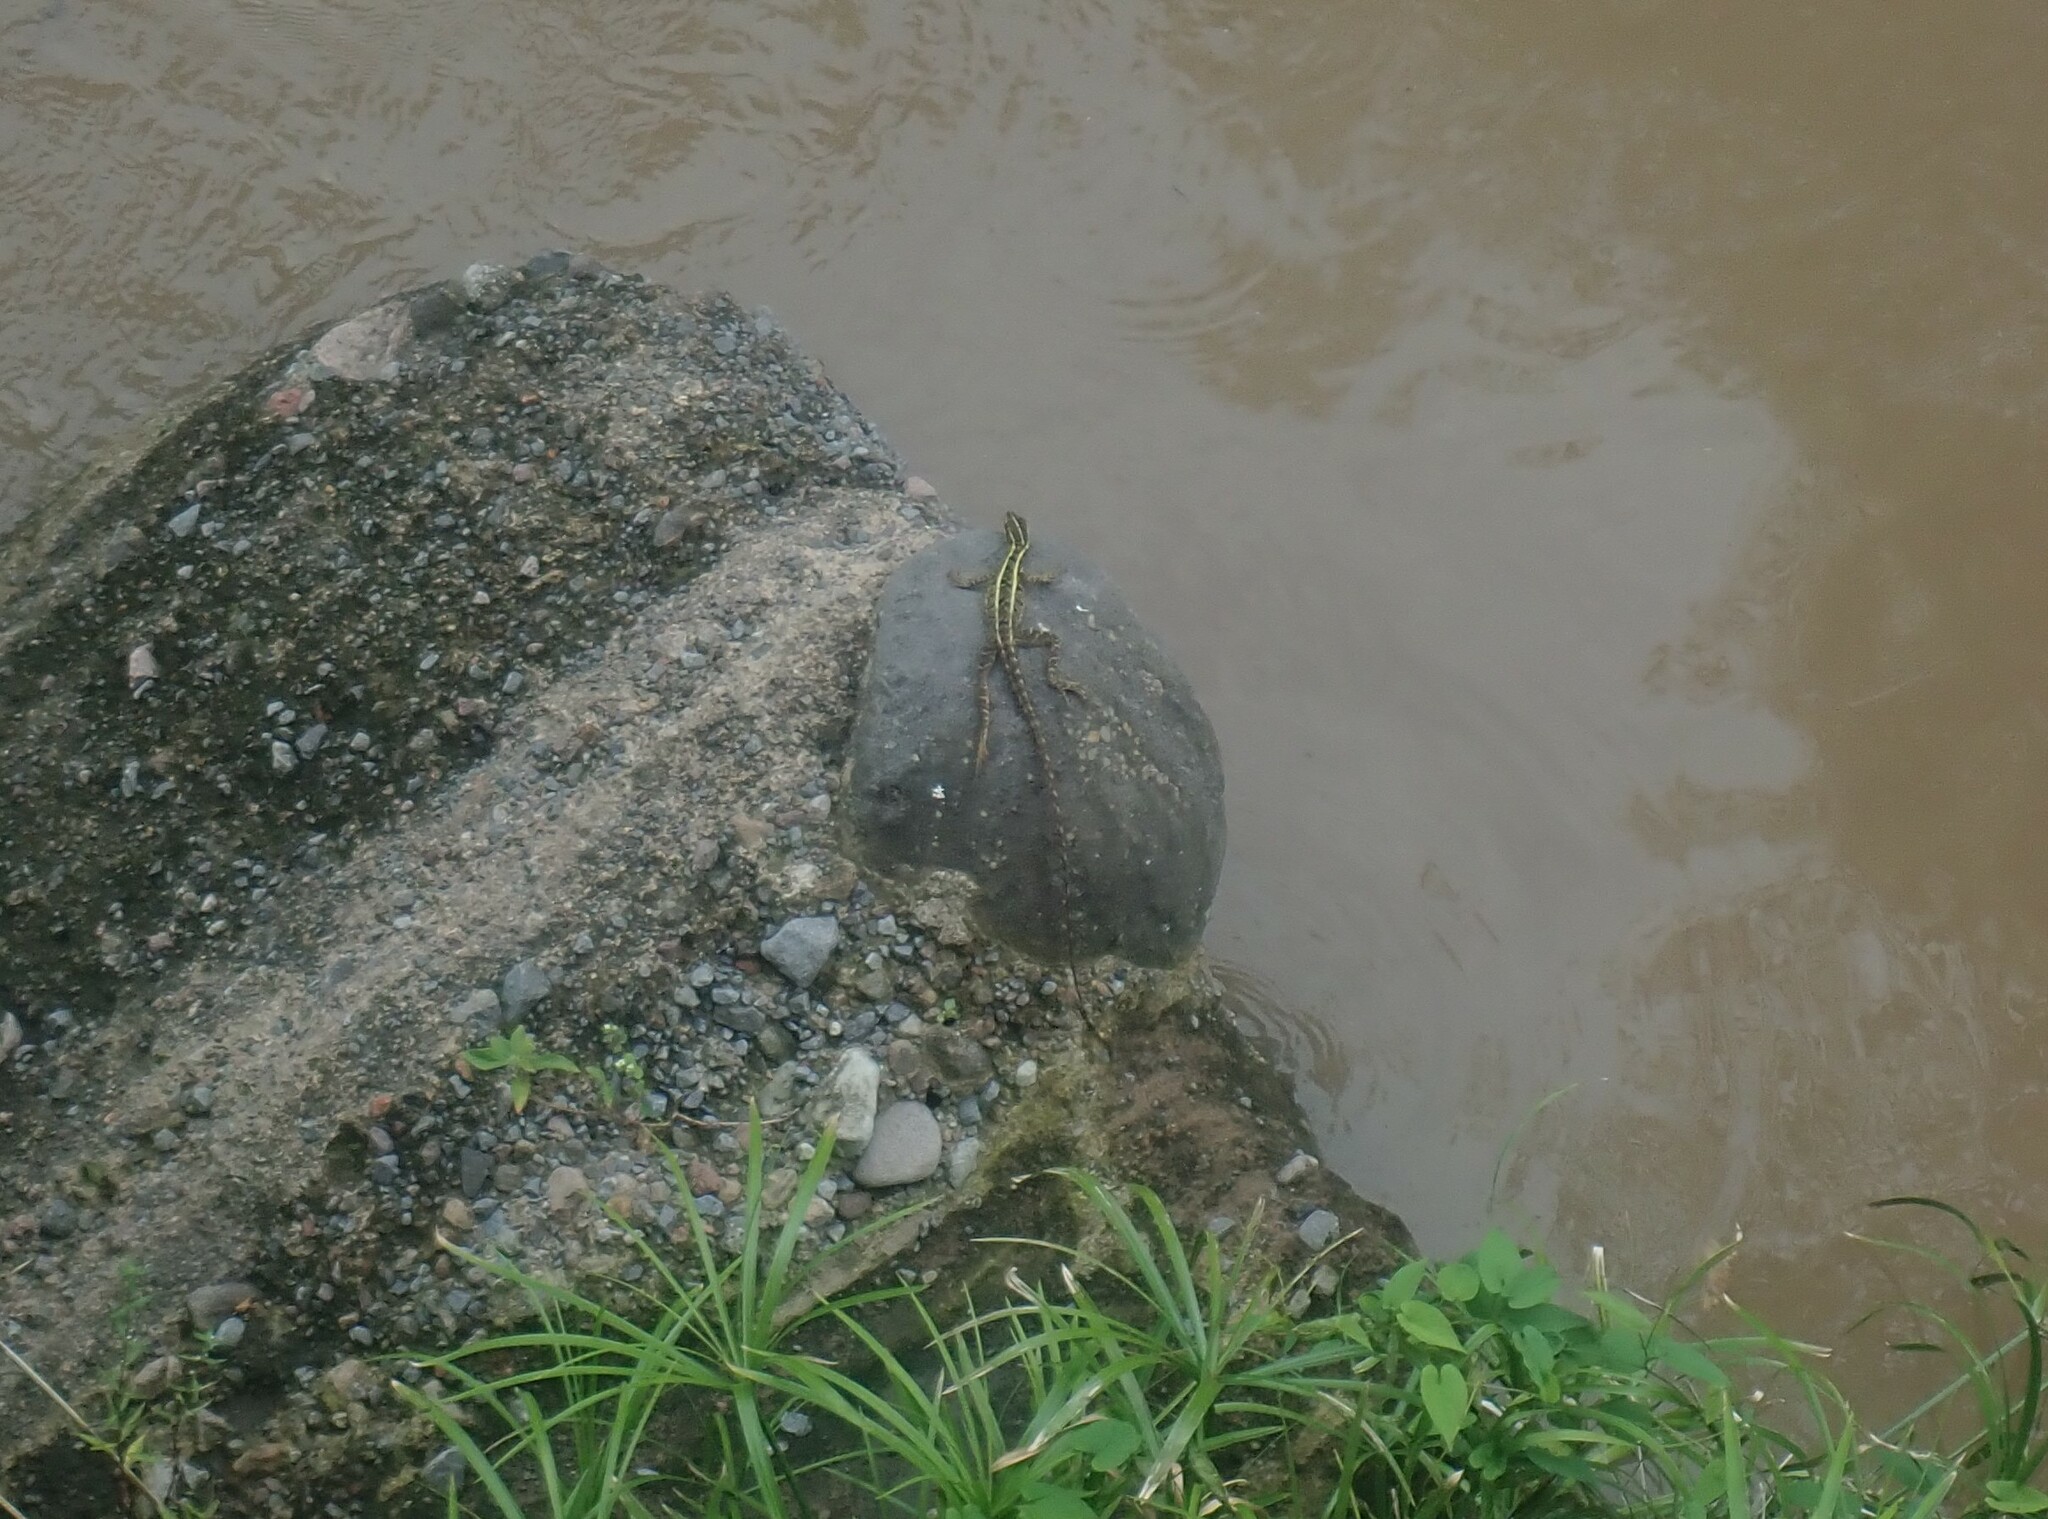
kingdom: Animalia
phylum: Chordata
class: Squamata
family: Corytophanidae
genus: Basiliscus
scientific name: Basiliscus vittatus
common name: Brown basilisk
